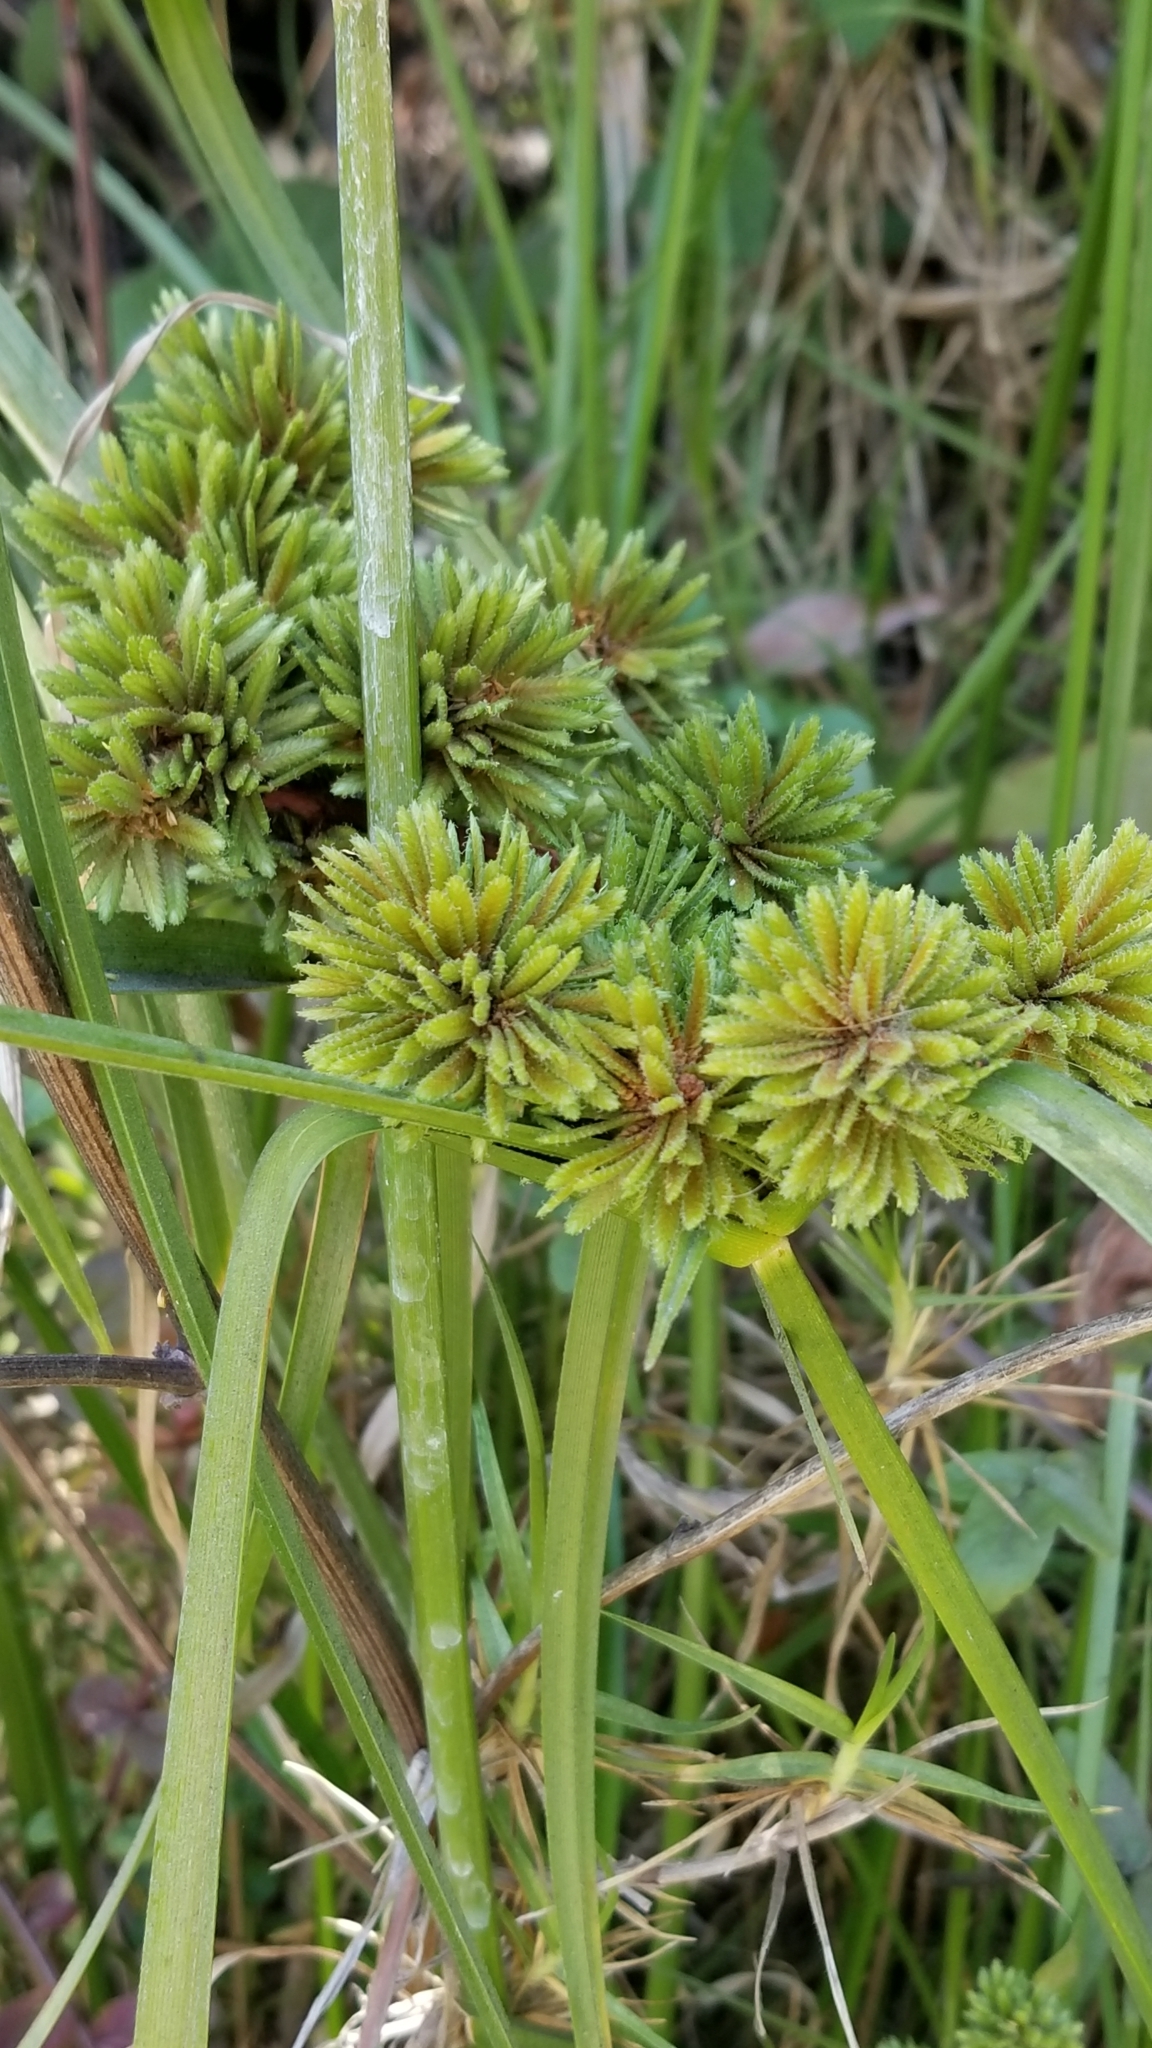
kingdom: Plantae
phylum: Tracheophyta
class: Liliopsida
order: Poales
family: Cyperaceae
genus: Cyperus
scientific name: Cyperus eragrostis
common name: Tall flatsedge
